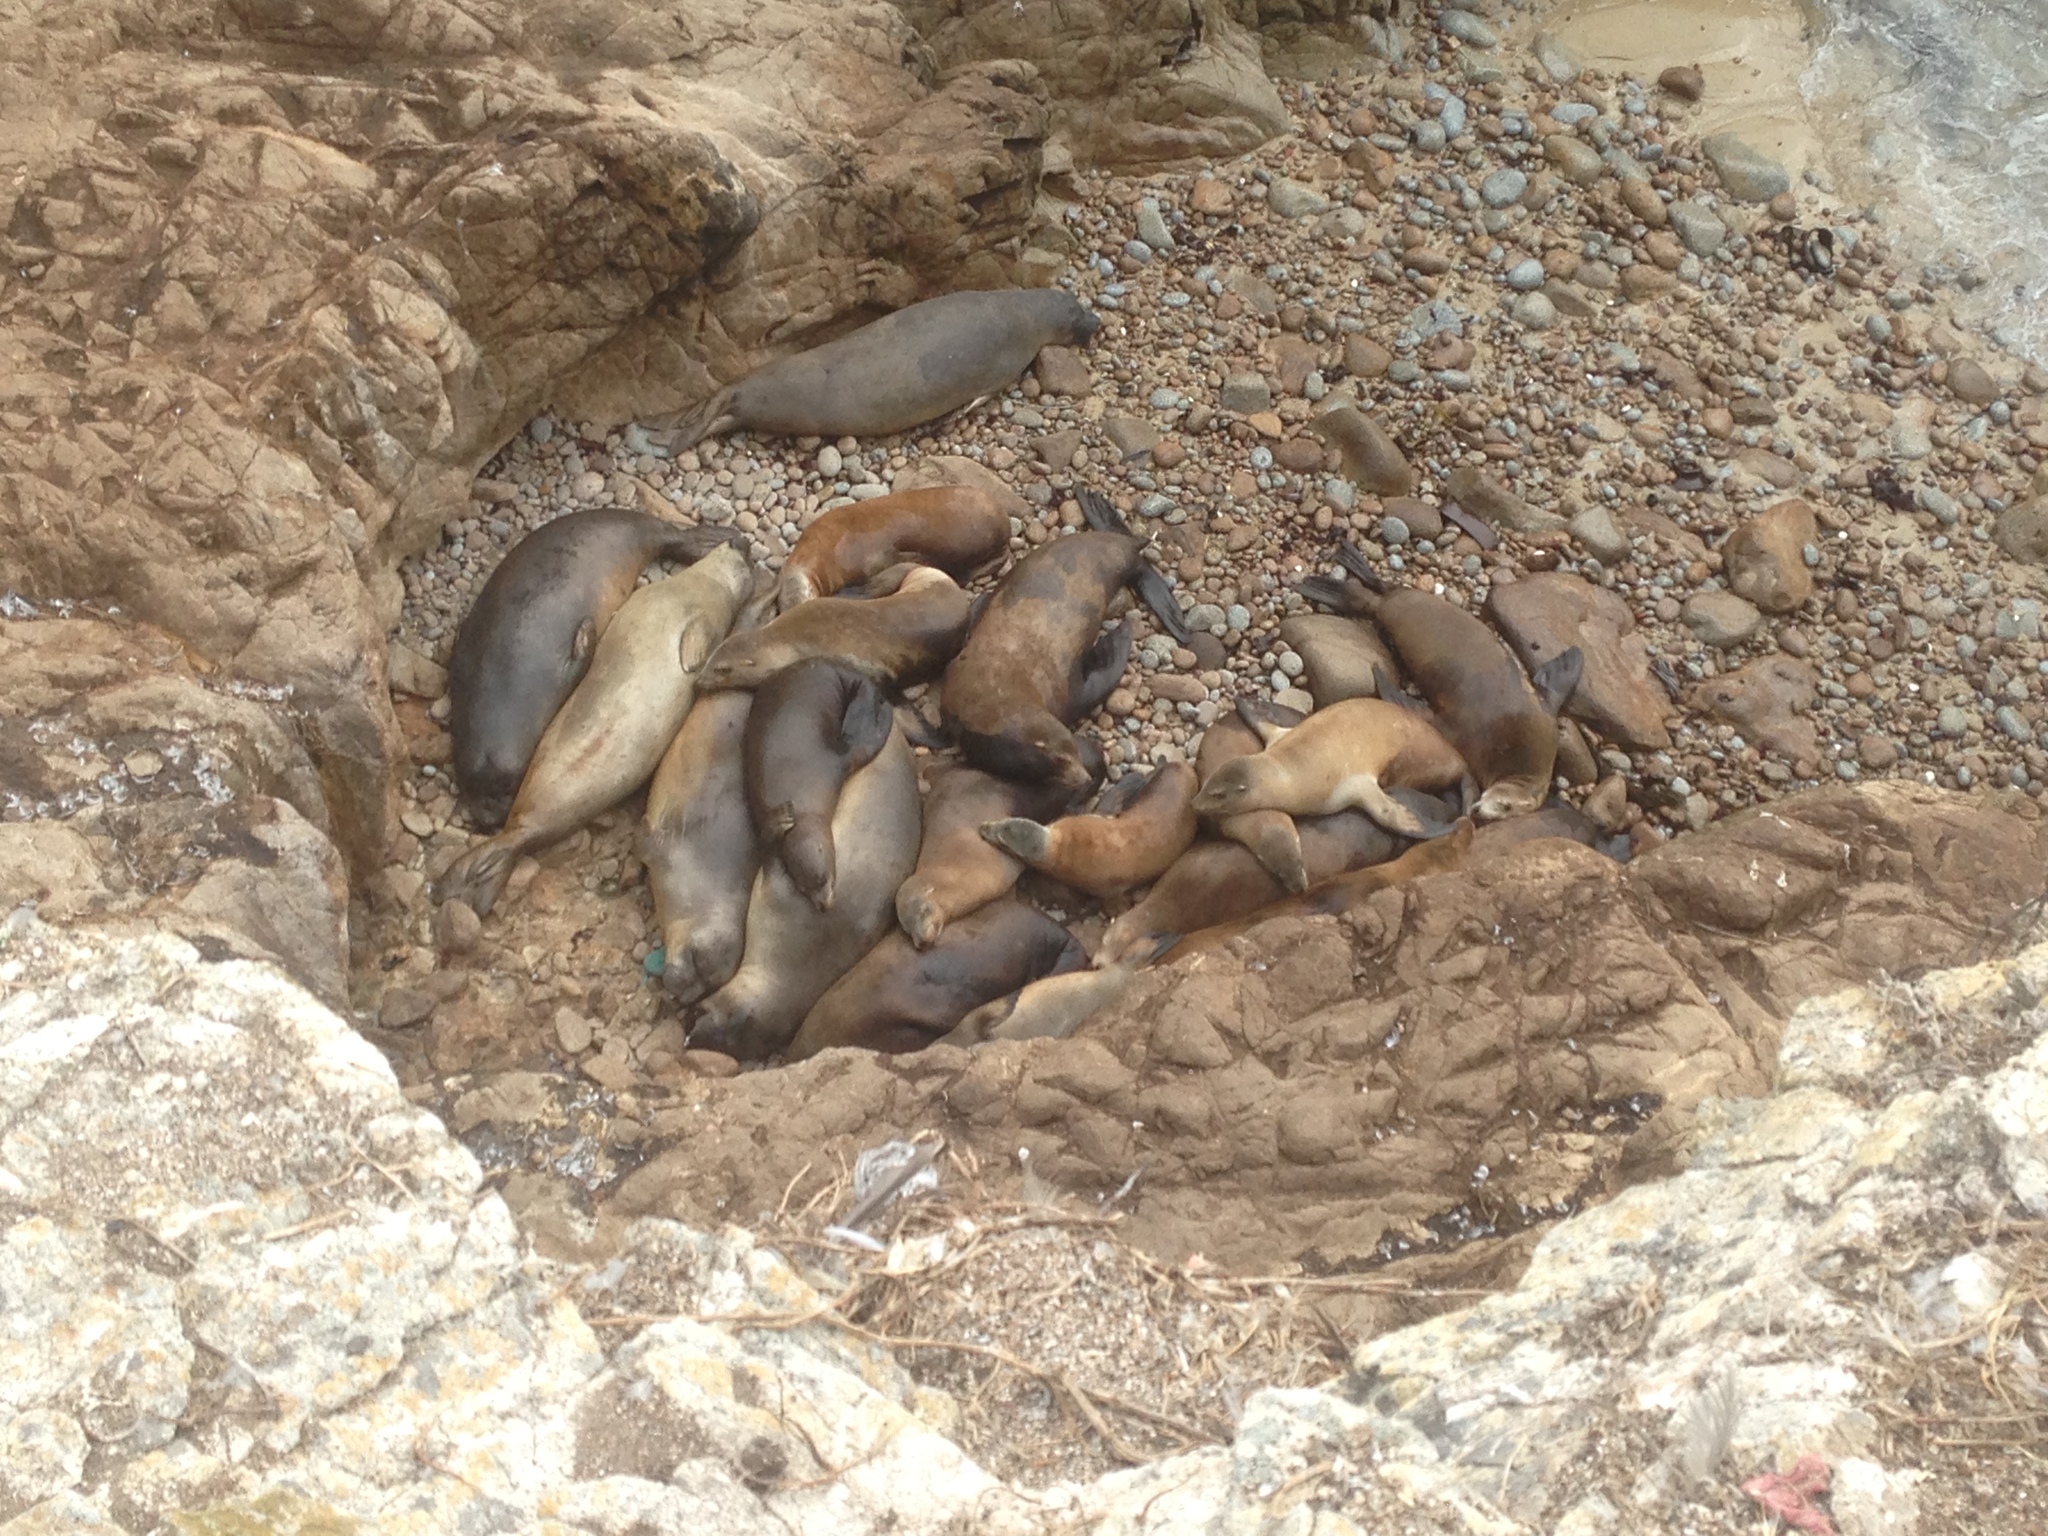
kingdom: Animalia
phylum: Chordata
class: Mammalia
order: Carnivora
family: Otariidae
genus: Zalophus
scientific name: Zalophus californianus
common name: California sea lion
